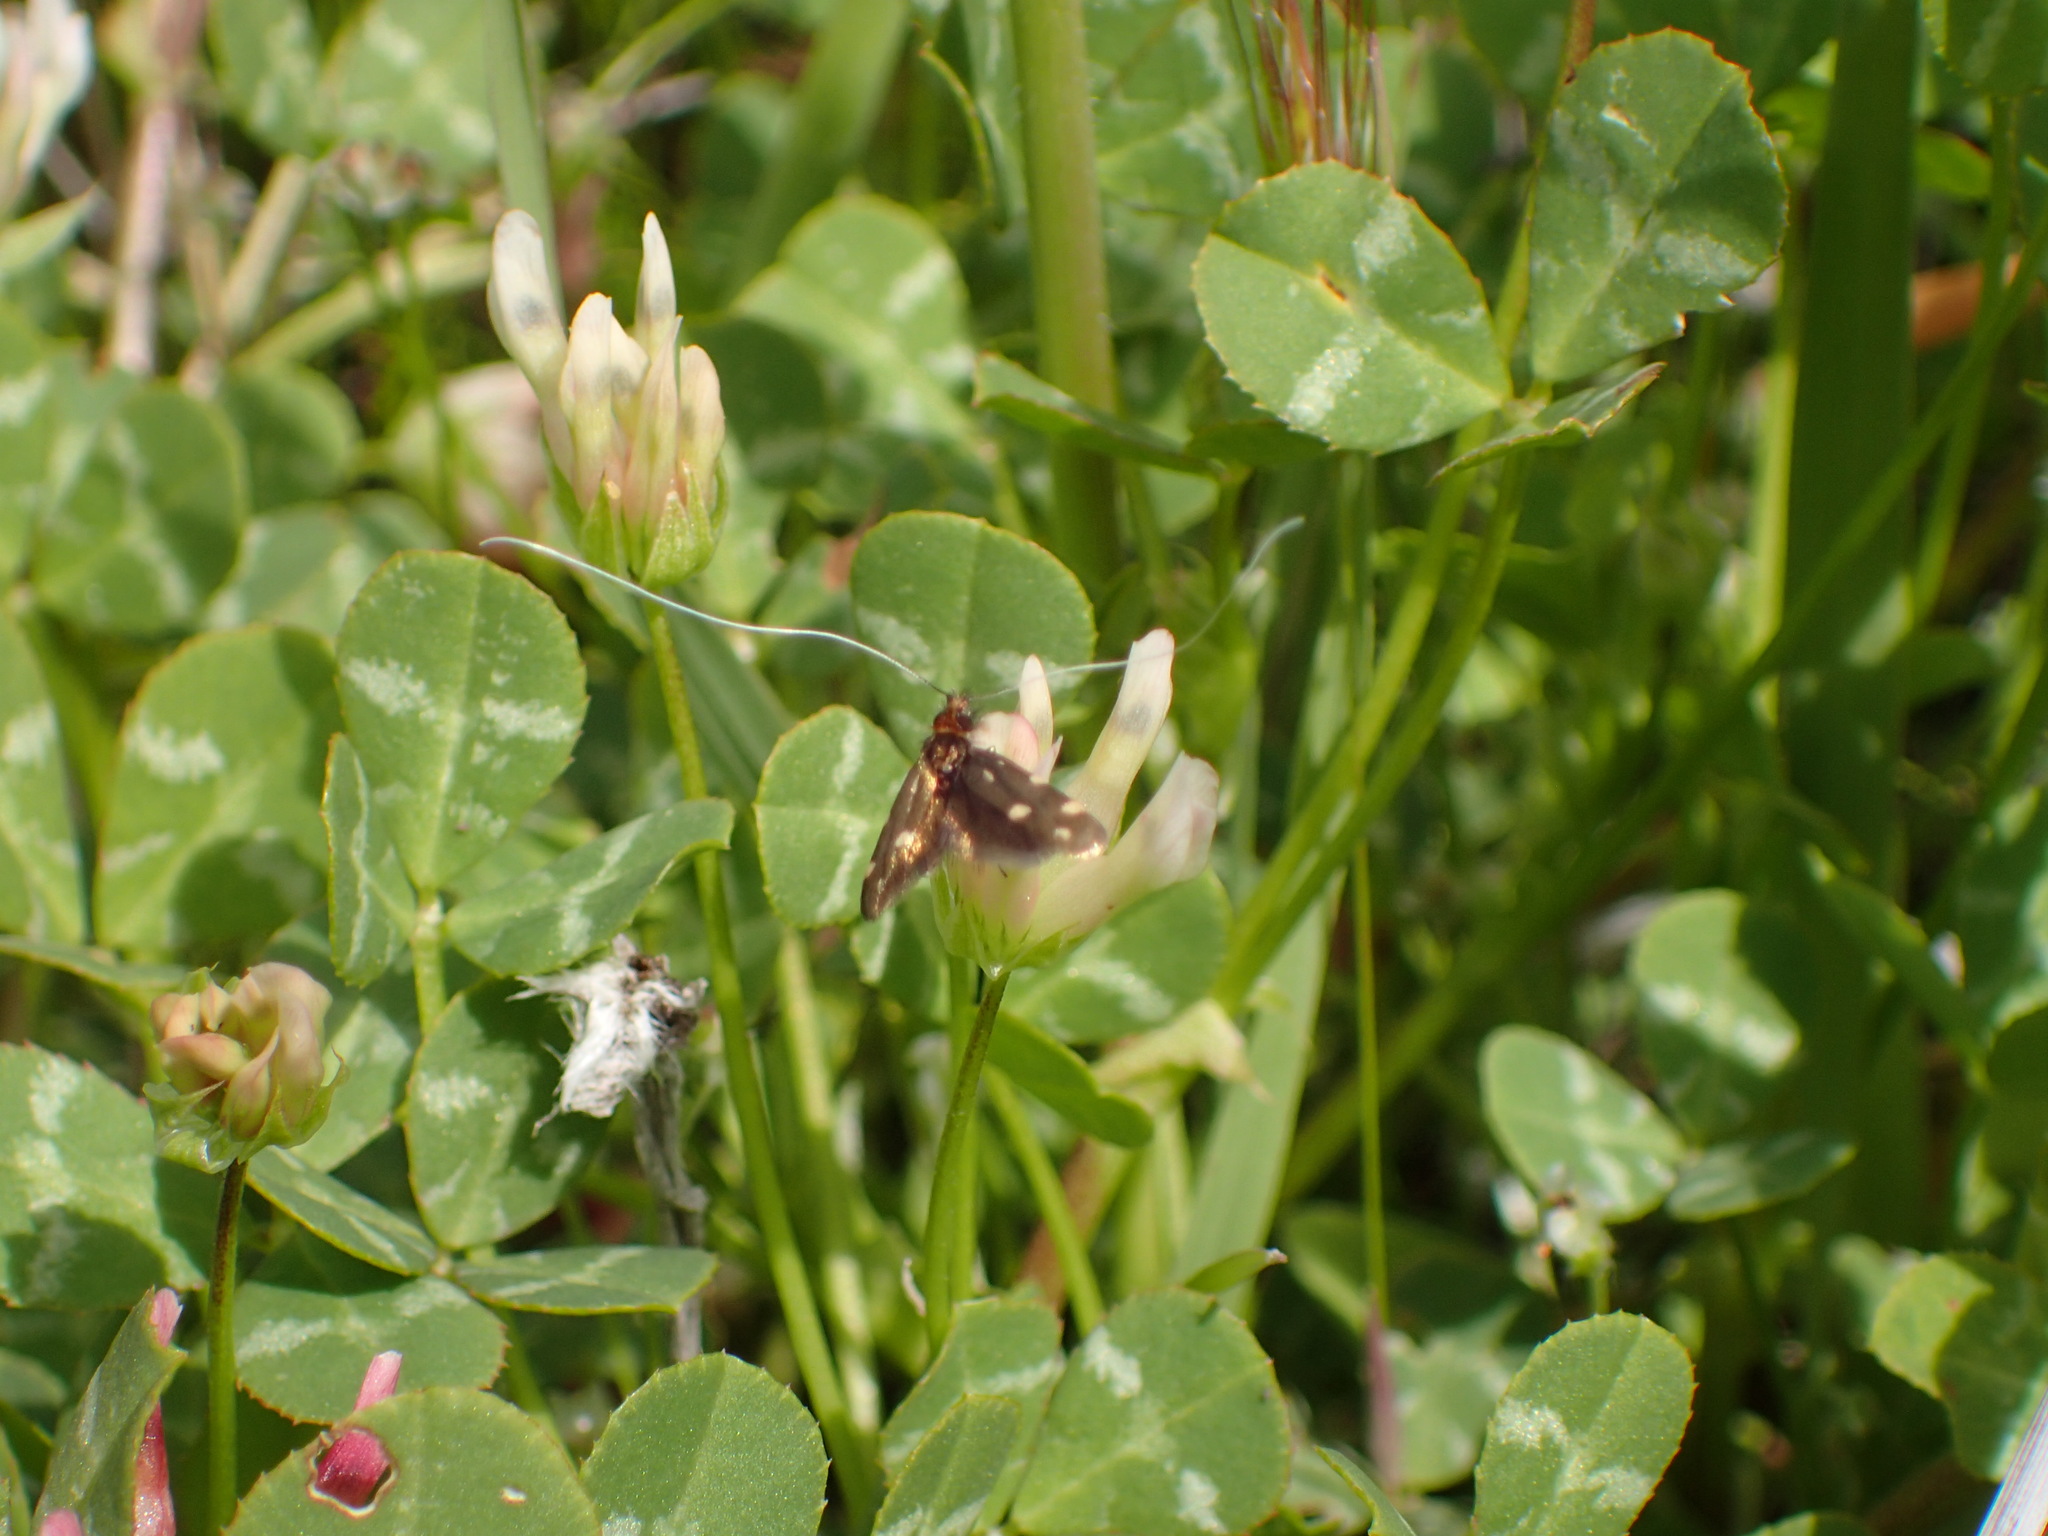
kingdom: Plantae
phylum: Tracheophyta
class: Magnoliopsida
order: Fabales
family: Fabaceae
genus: Trifolium
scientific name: Trifolium fucatum
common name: Puff clover
